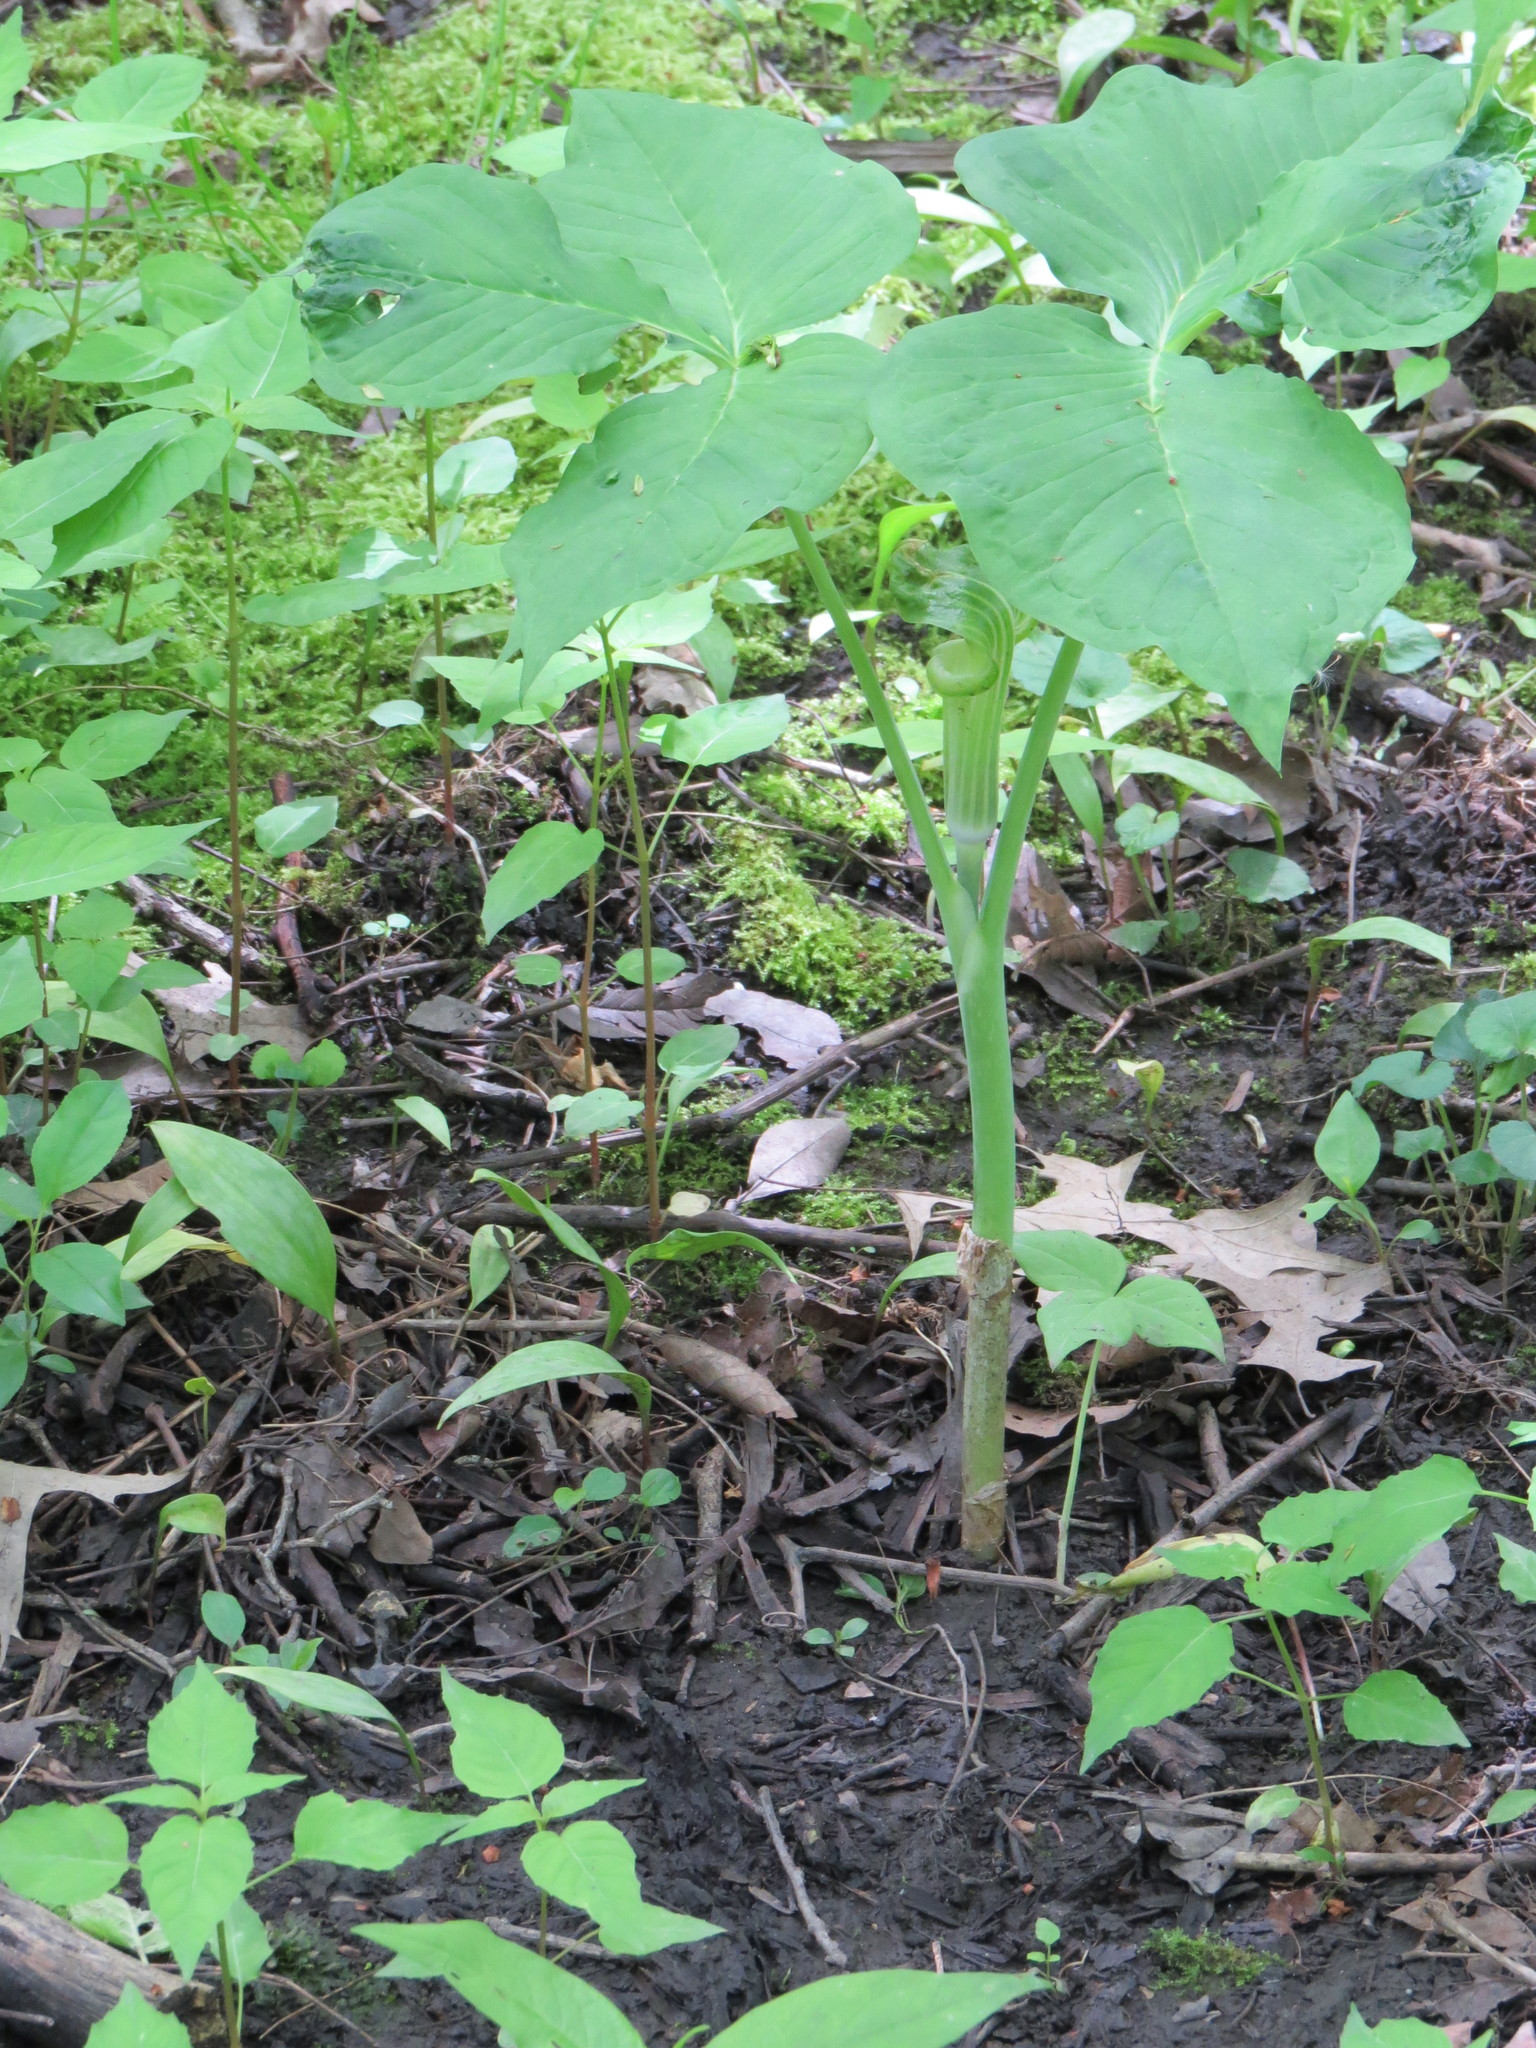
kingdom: Plantae
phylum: Tracheophyta
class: Liliopsida
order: Alismatales
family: Araceae
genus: Arisaema
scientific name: Arisaema triphyllum
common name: Jack-in-the-pulpit
